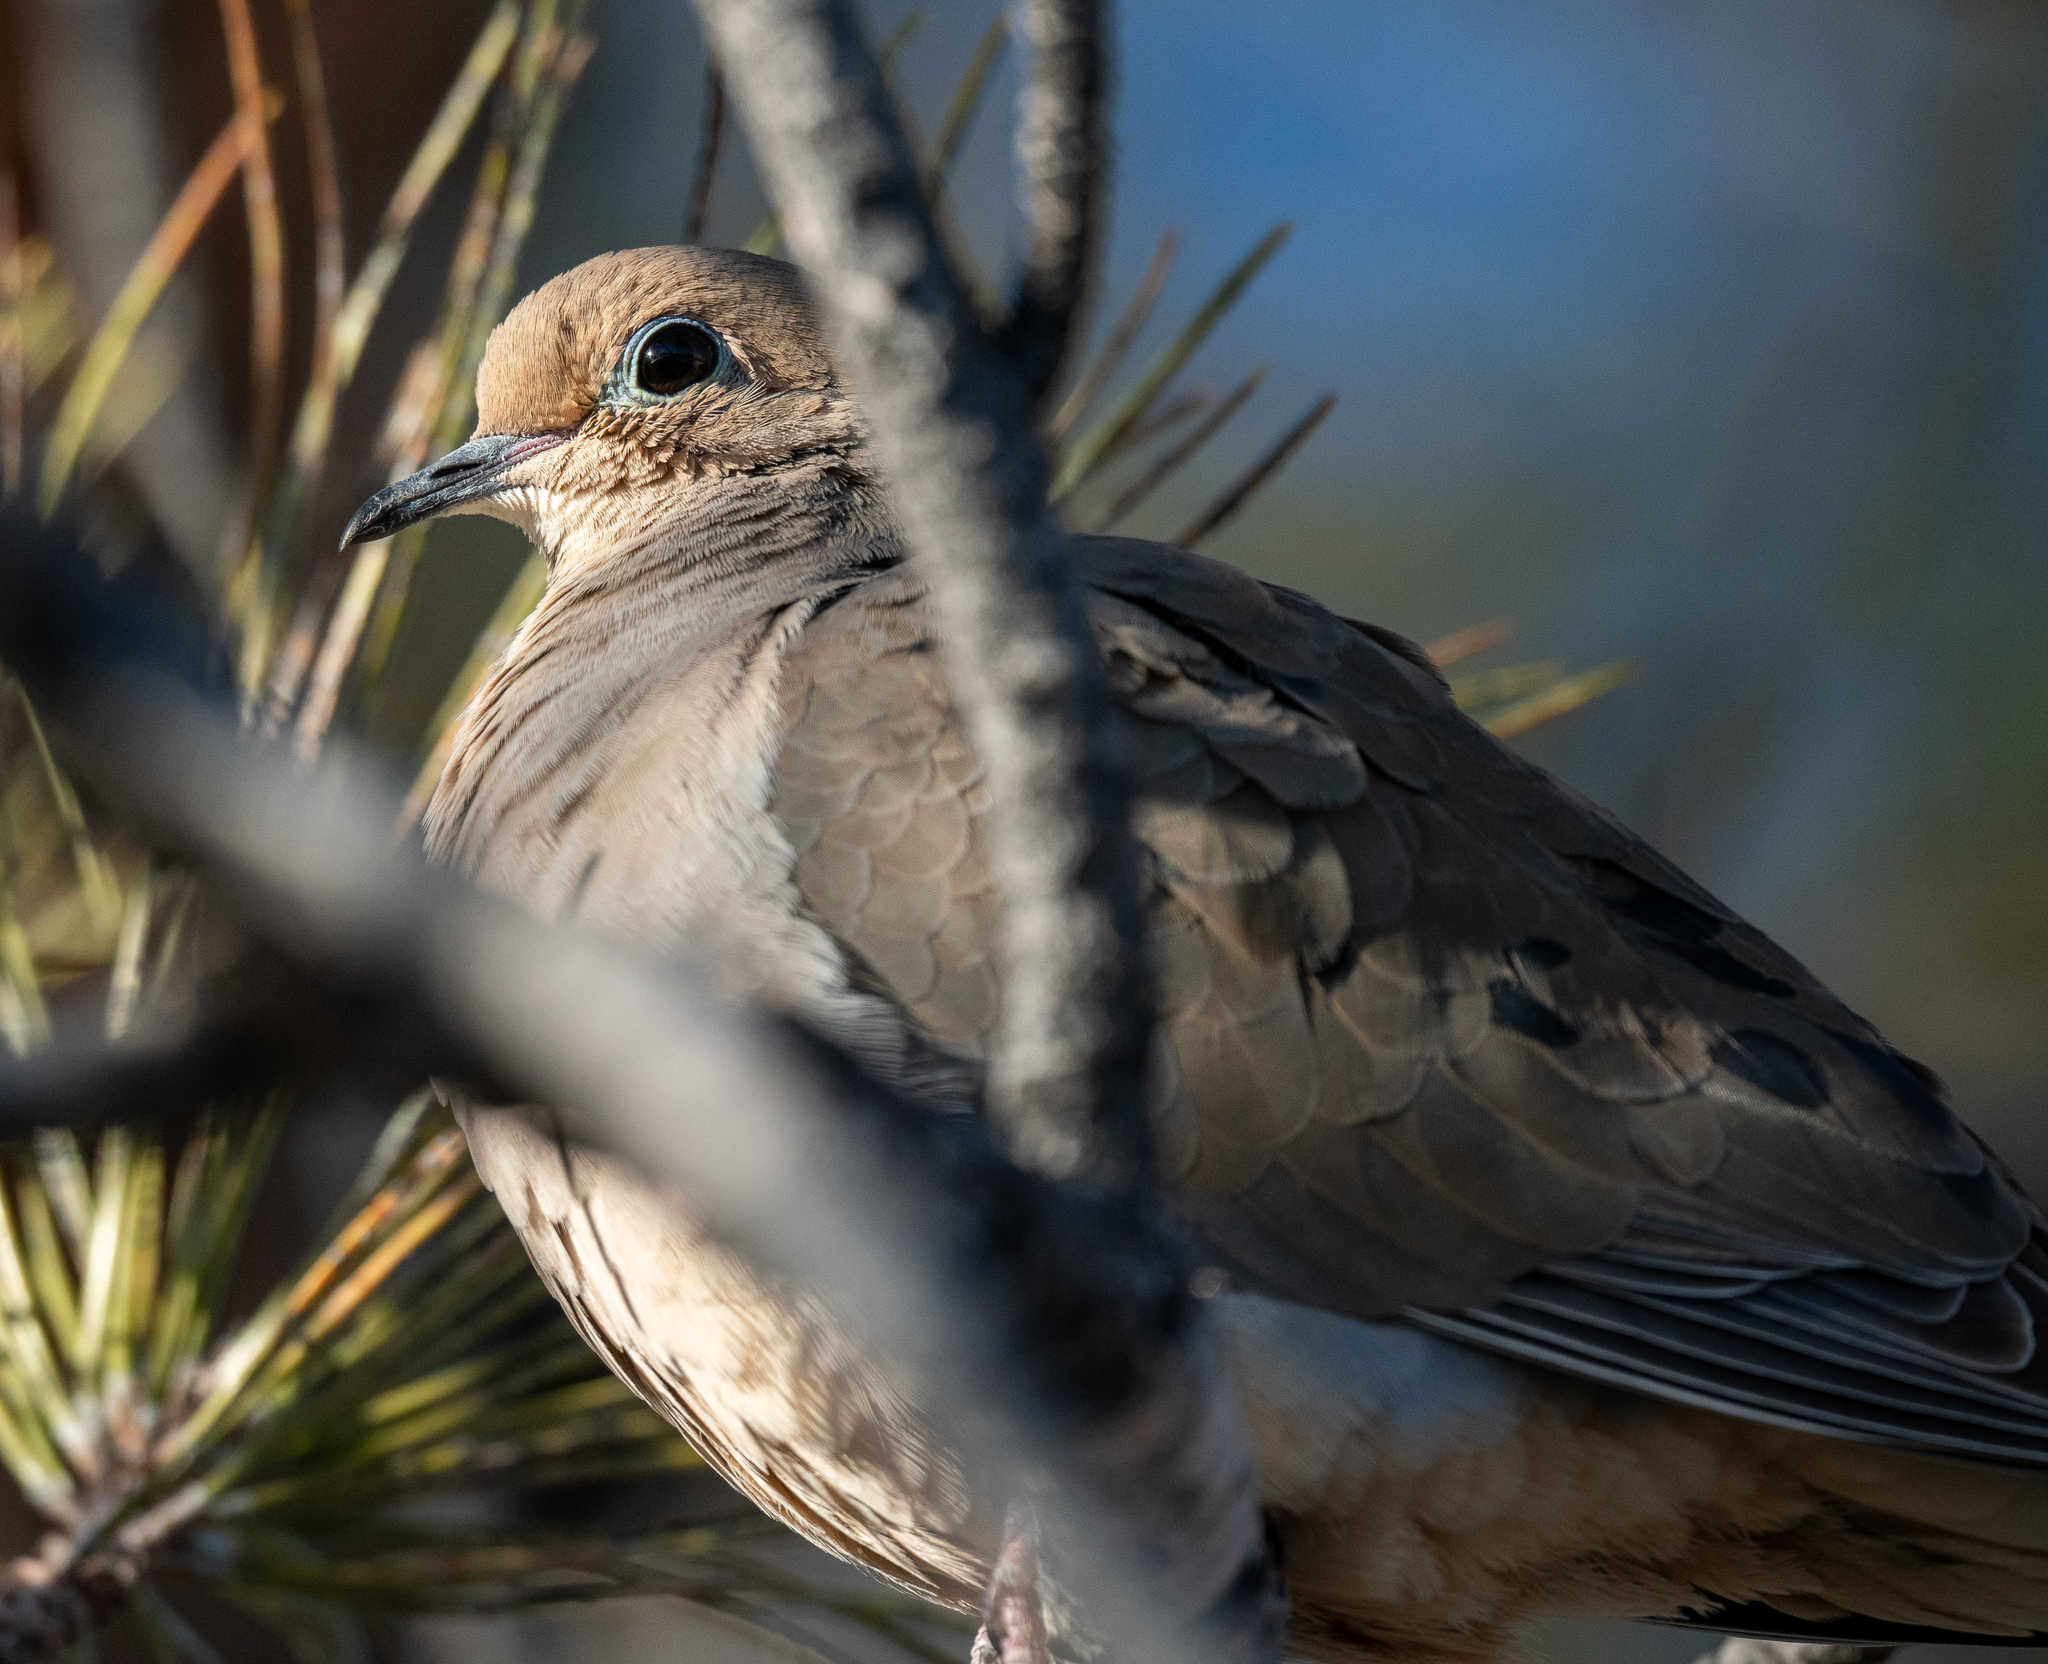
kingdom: Animalia
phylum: Chordata
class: Aves
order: Columbiformes
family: Columbidae
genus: Zenaida
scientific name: Zenaida macroura
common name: Mourning dove
